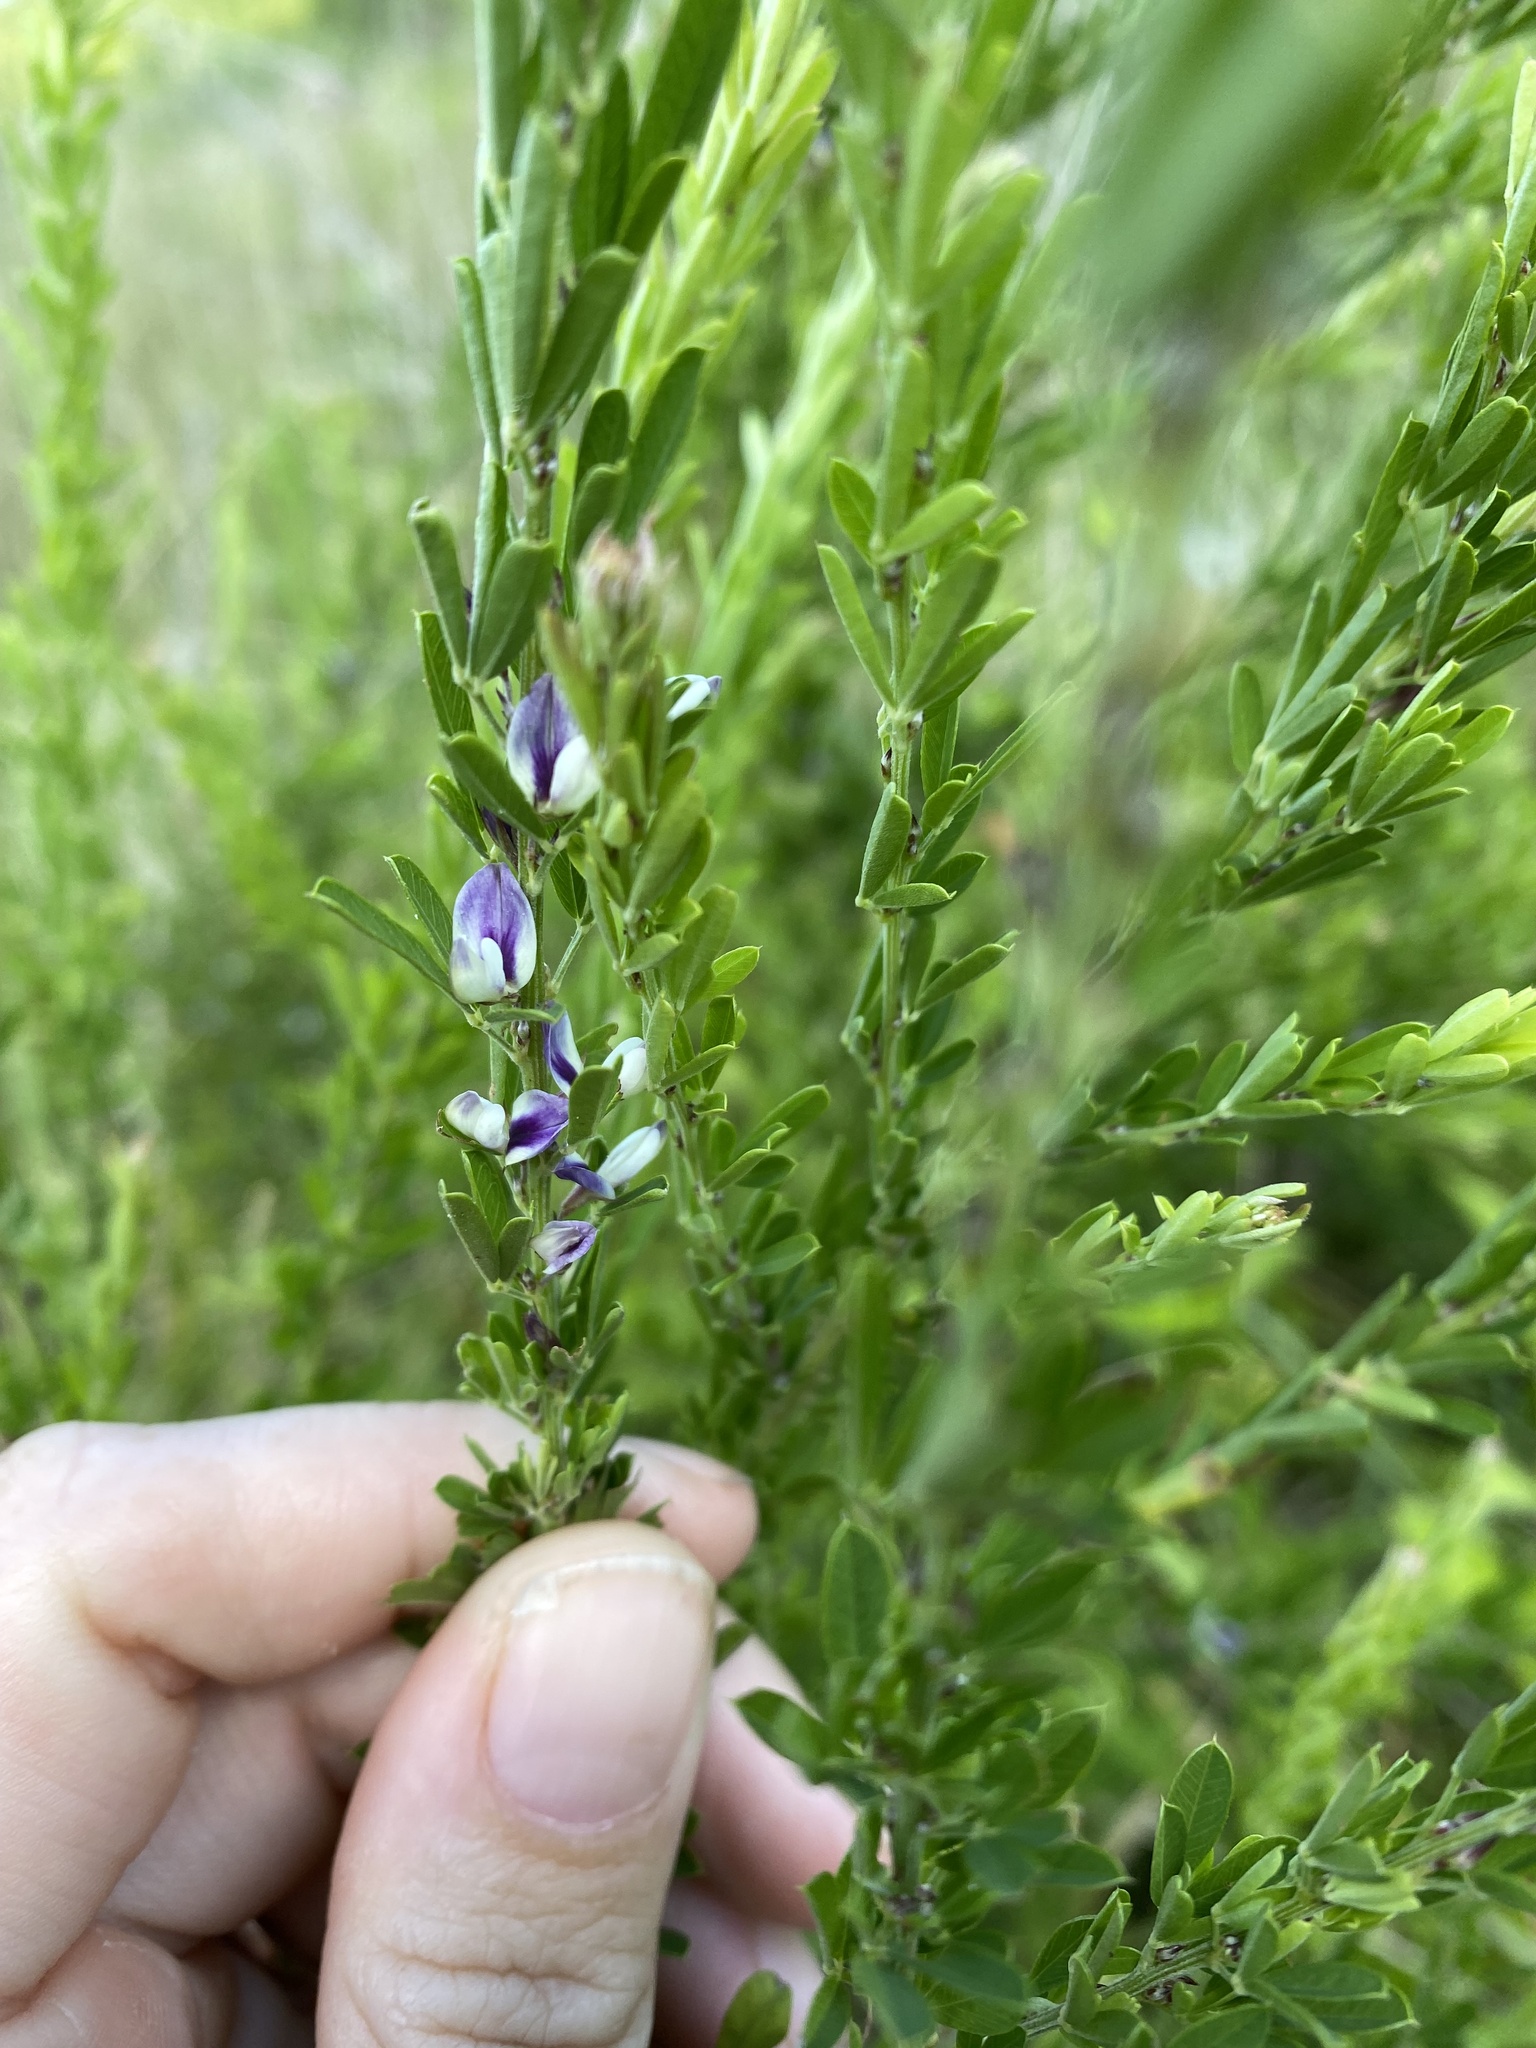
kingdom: Plantae
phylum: Tracheophyta
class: Magnoliopsida
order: Fabales
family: Fabaceae
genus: Lespedeza
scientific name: Lespedeza cuneata
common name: Chinese bush-clover
